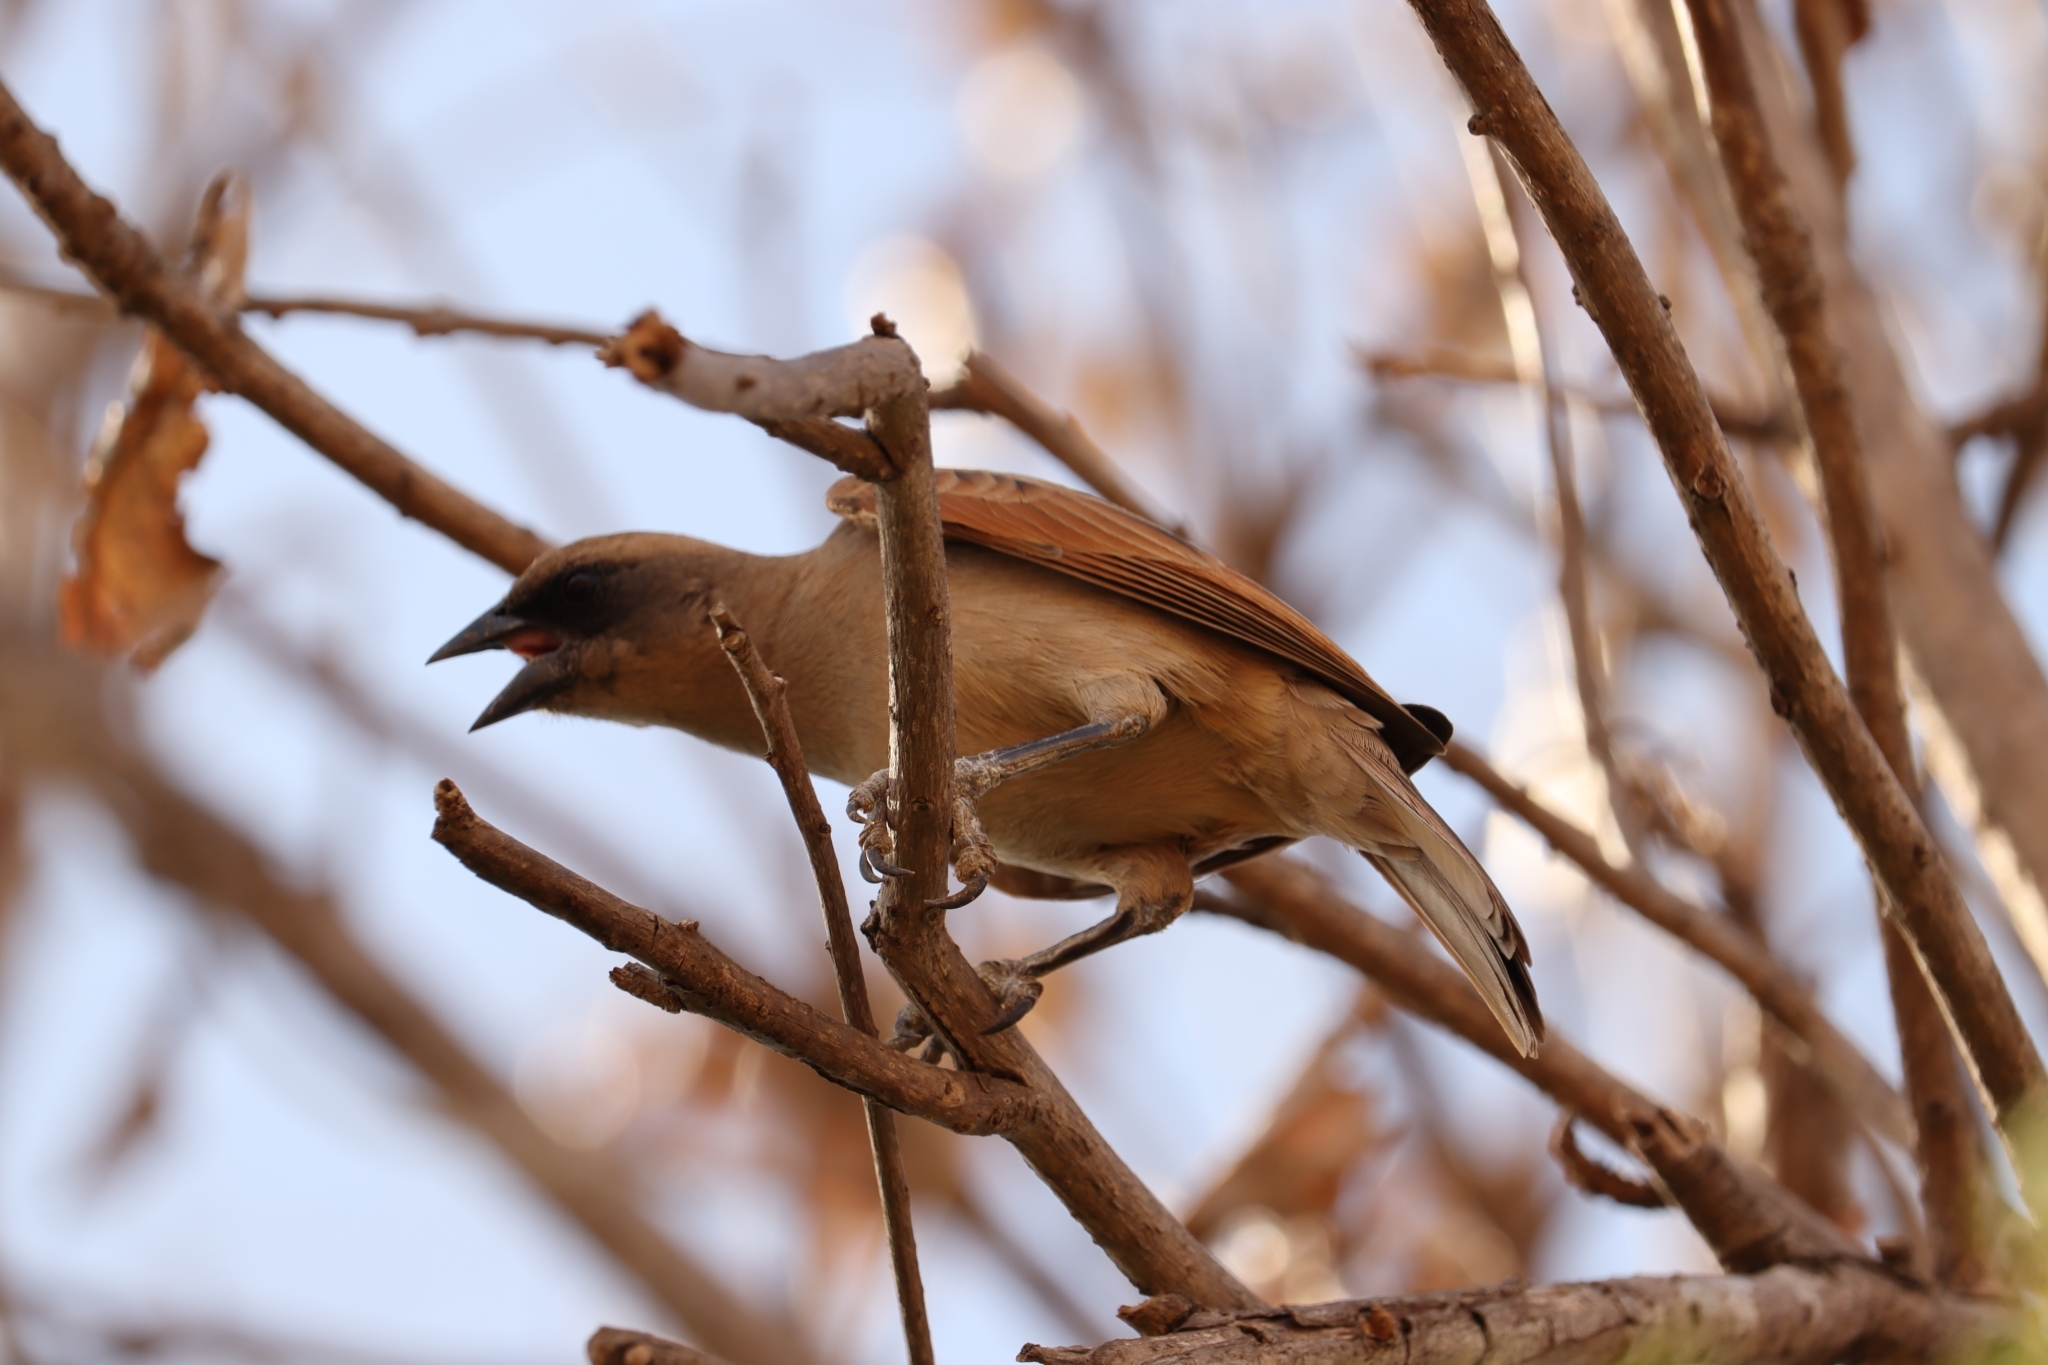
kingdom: Animalia
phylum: Chordata
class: Aves
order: Passeriformes
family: Icteridae
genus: Agelaioides
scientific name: Agelaioides badius
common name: Baywing
